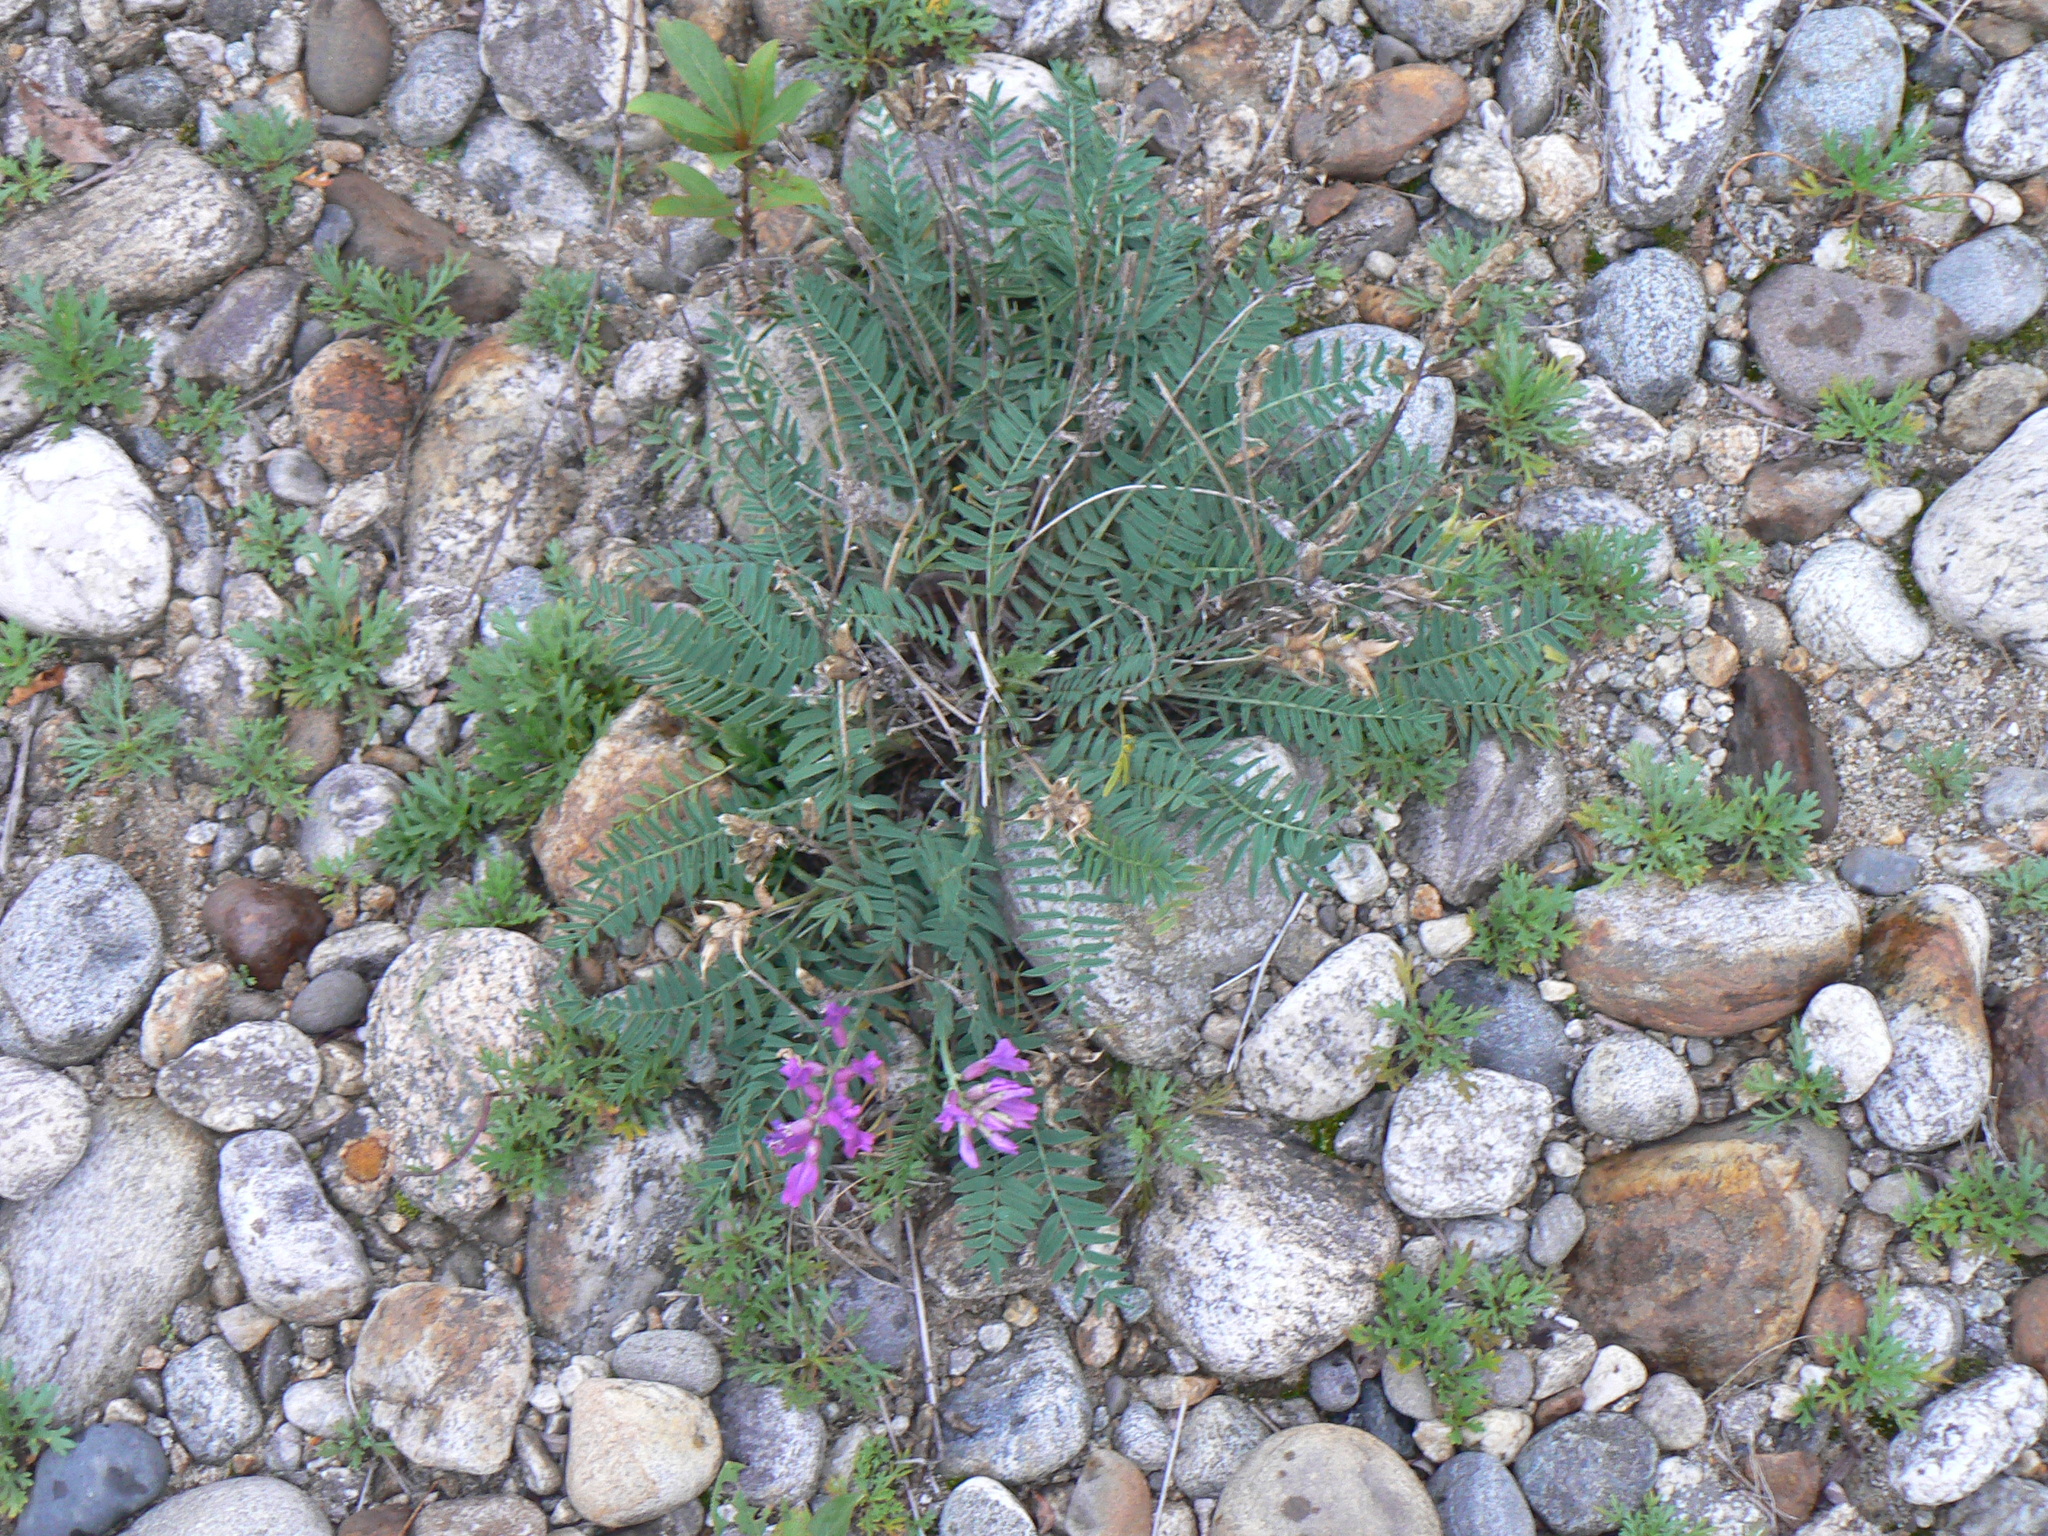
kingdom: Plantae
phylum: Tracheophyta
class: Magnoliopsida
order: Fabales
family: Fabaceae
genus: Oxytropis
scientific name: Oxytropis longirostra
